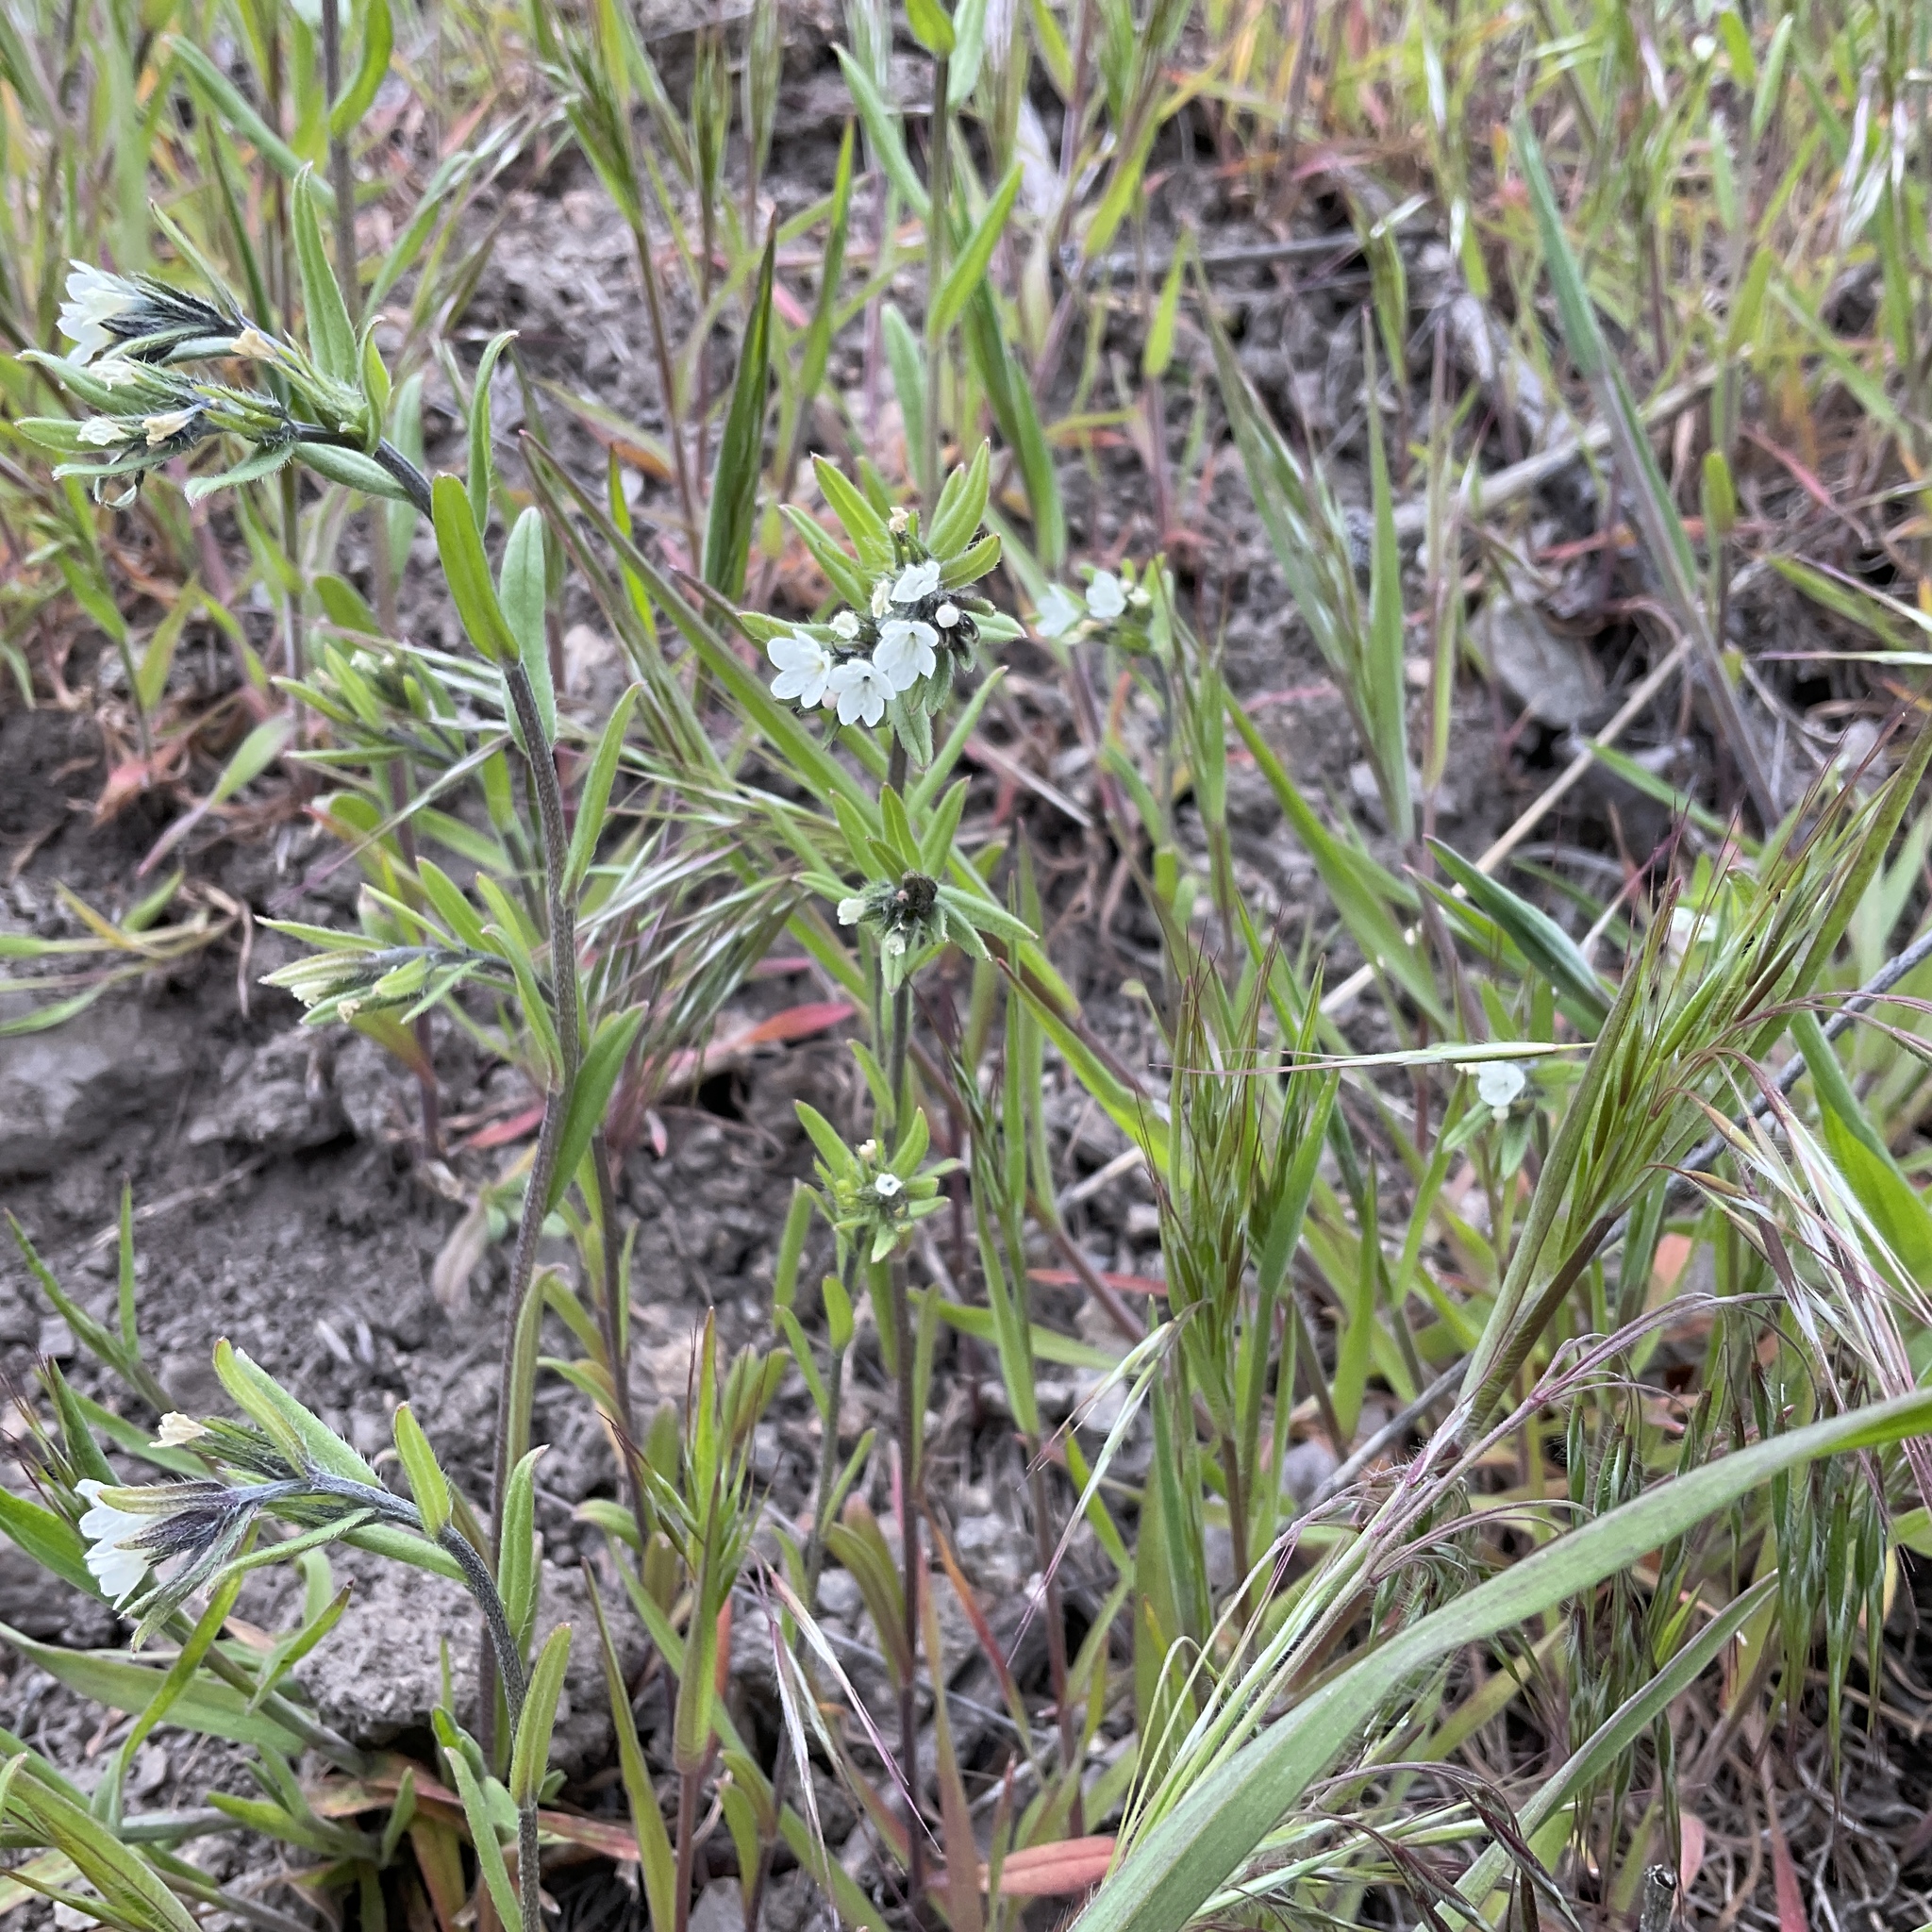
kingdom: Plantae
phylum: Tracheophyta
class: Magnoliopsida
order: Boraginales
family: Boraginaceae
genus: Buglossoides
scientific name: Buglossoides arvensis
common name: Corn gromwell
